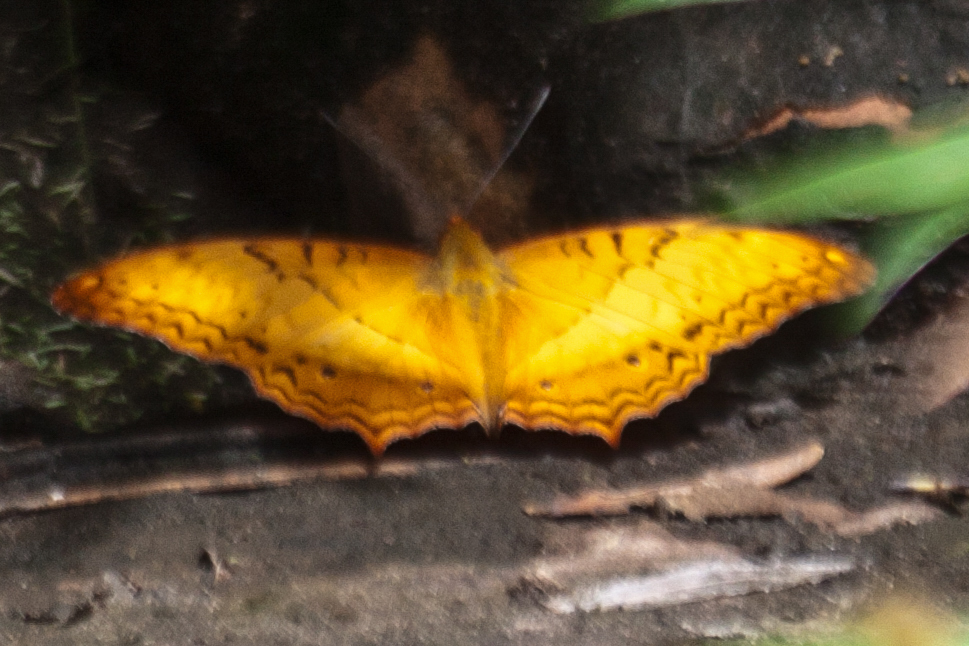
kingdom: Animalia
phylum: Arthropoda
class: Insecta
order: Lepidoptera
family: Nymphalidae
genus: Vindula
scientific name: Vindula erota
